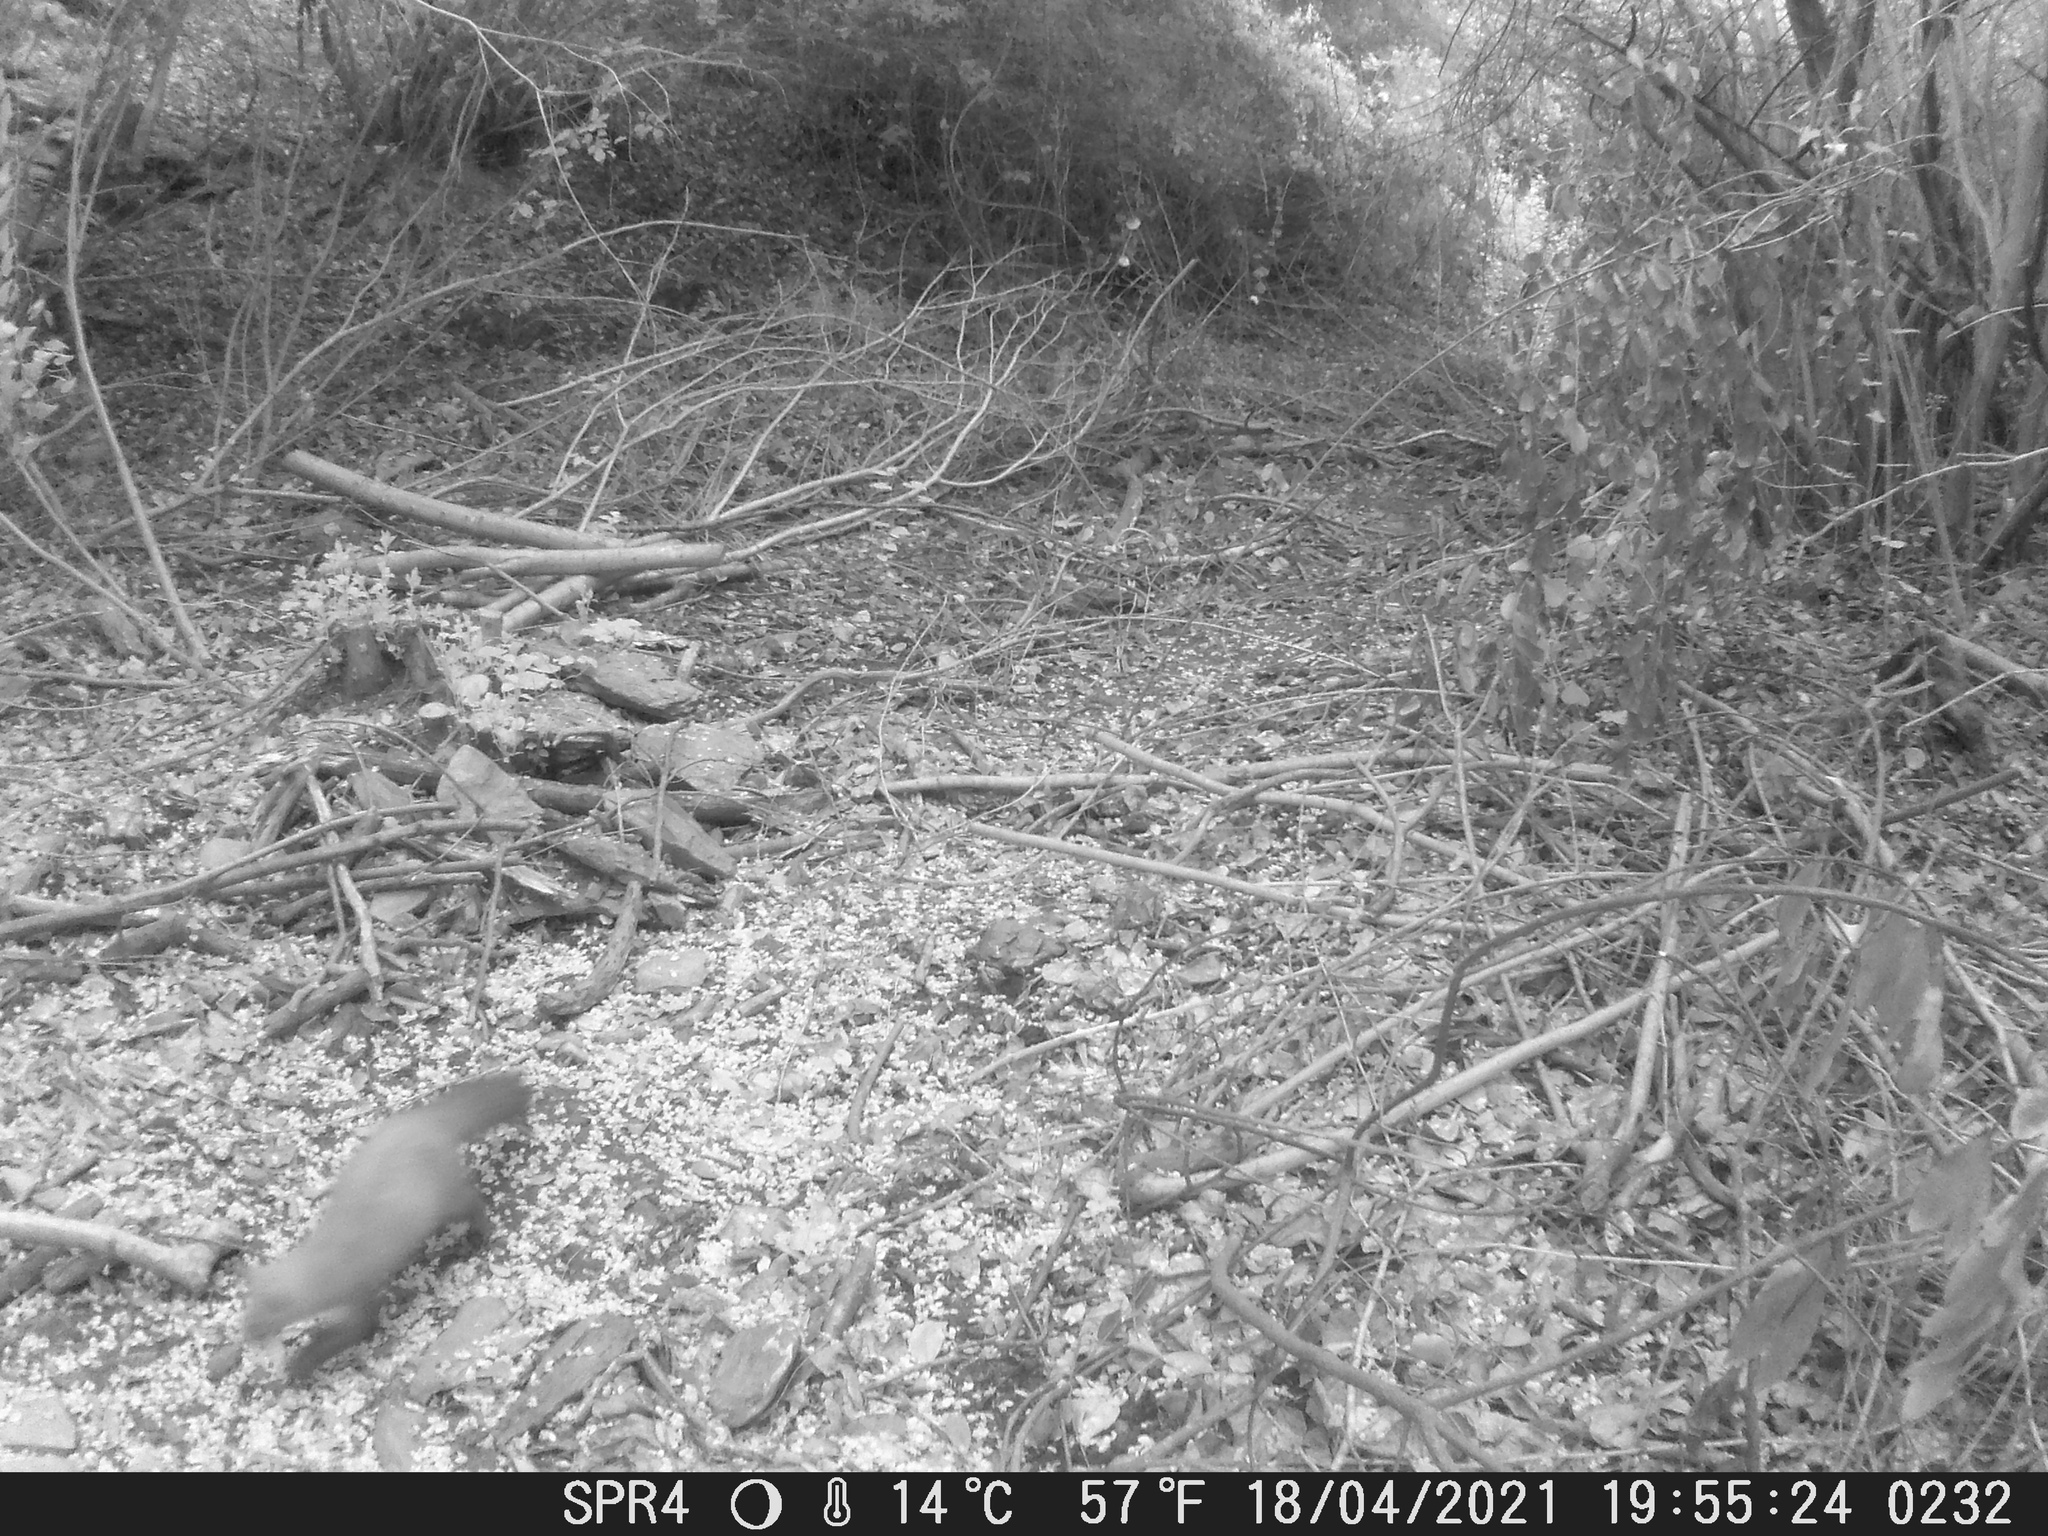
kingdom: Animalia
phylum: Chordata
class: Mammalia
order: Carnivora
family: Mustelidae
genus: Martes
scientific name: Martes foina
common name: Beech marten
